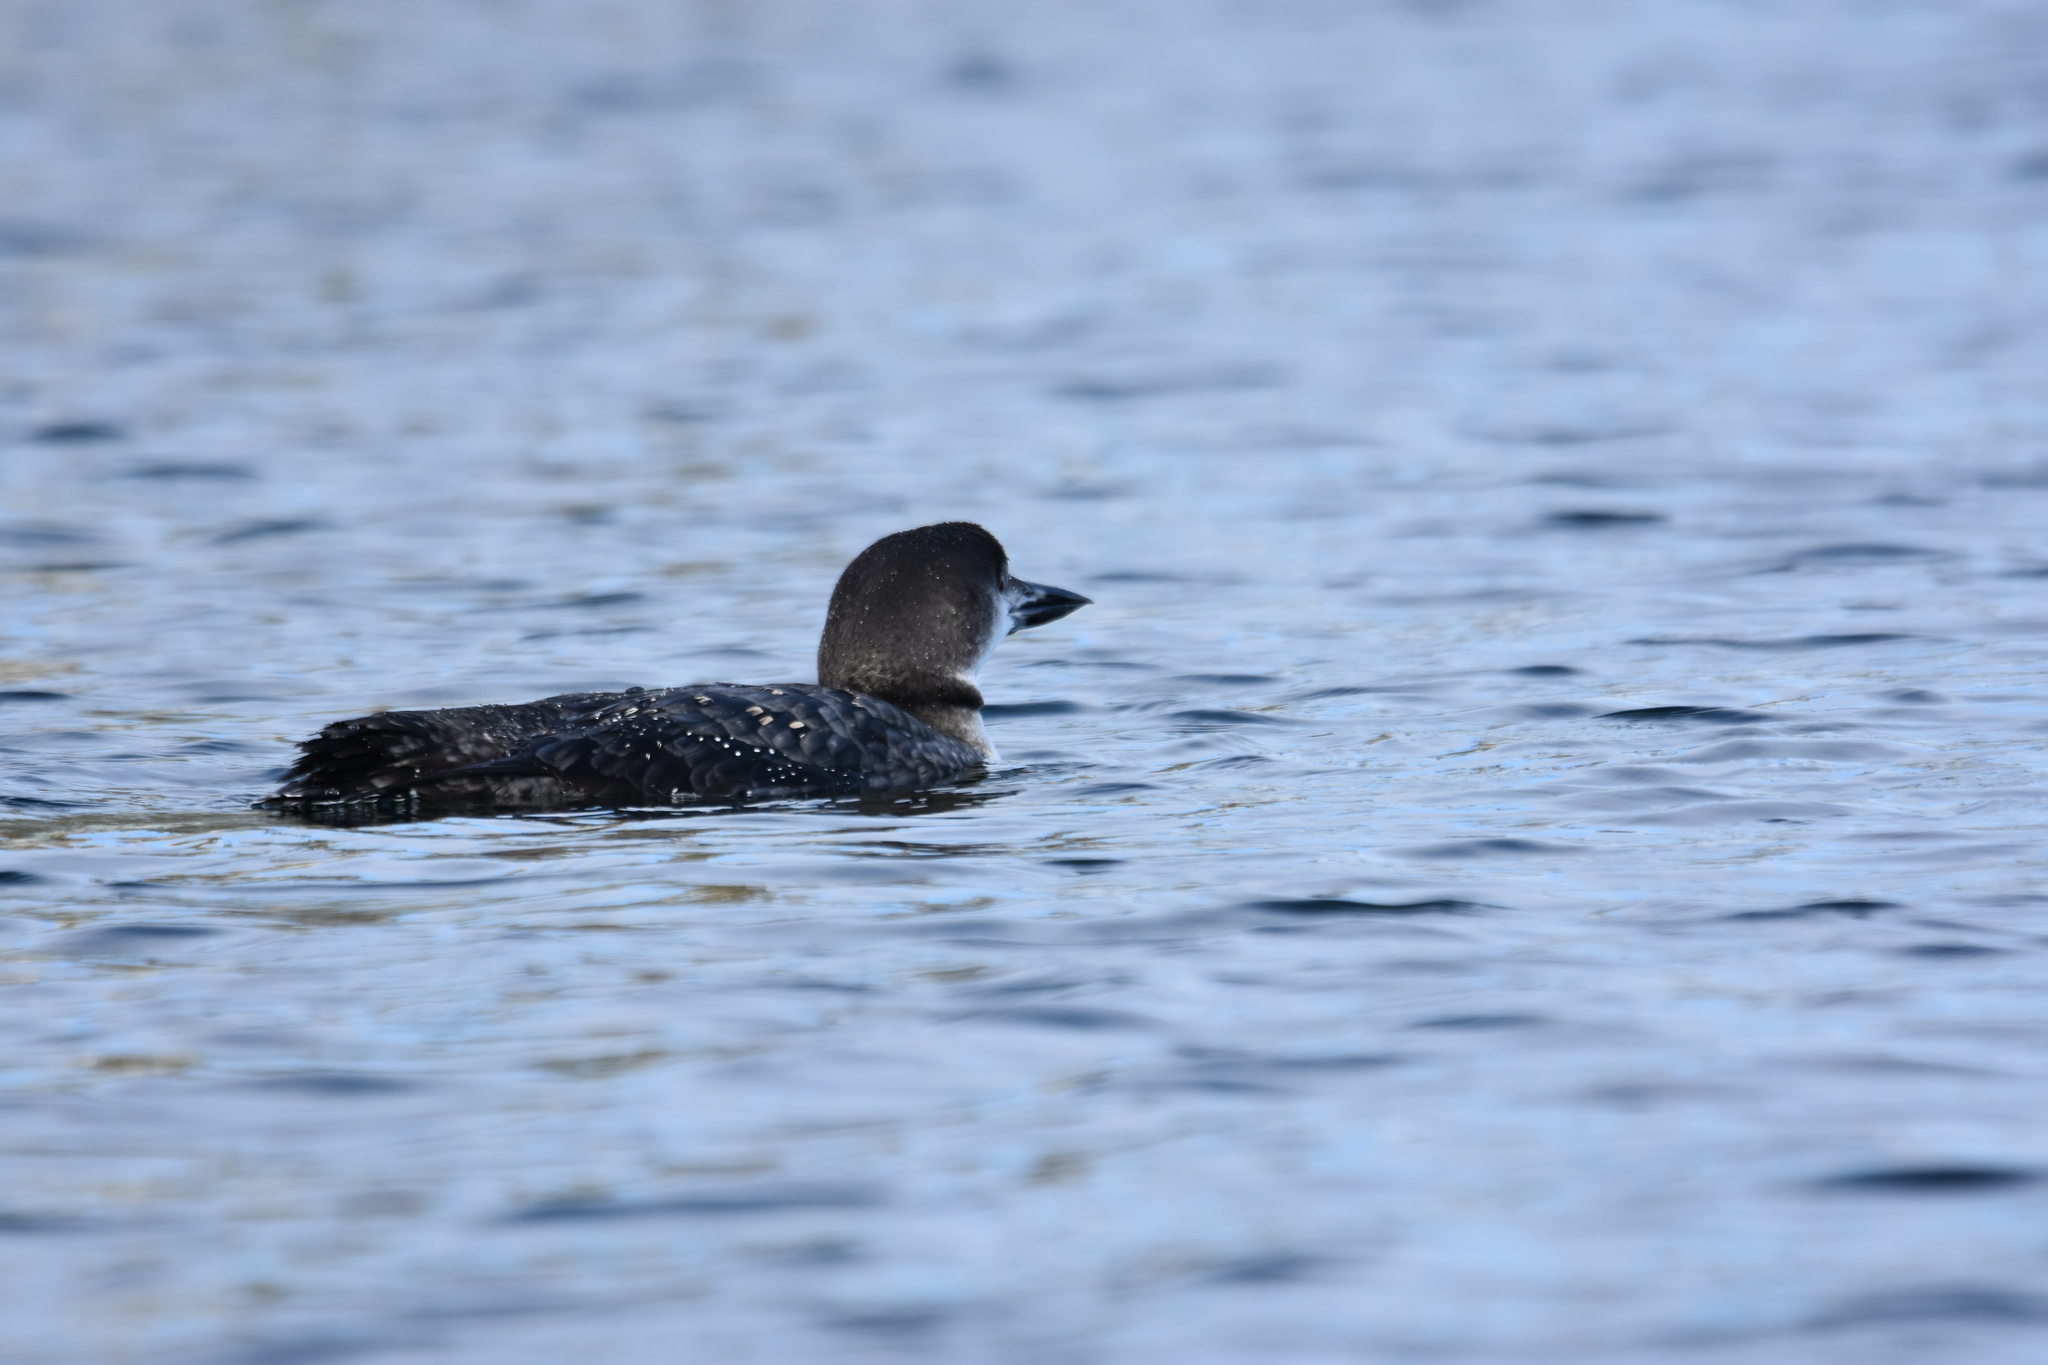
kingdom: Animalia
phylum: Chordata
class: Aves
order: Gaviiformes
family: Gaviidae
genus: Gavia
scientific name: Gavia immer
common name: Common loon
